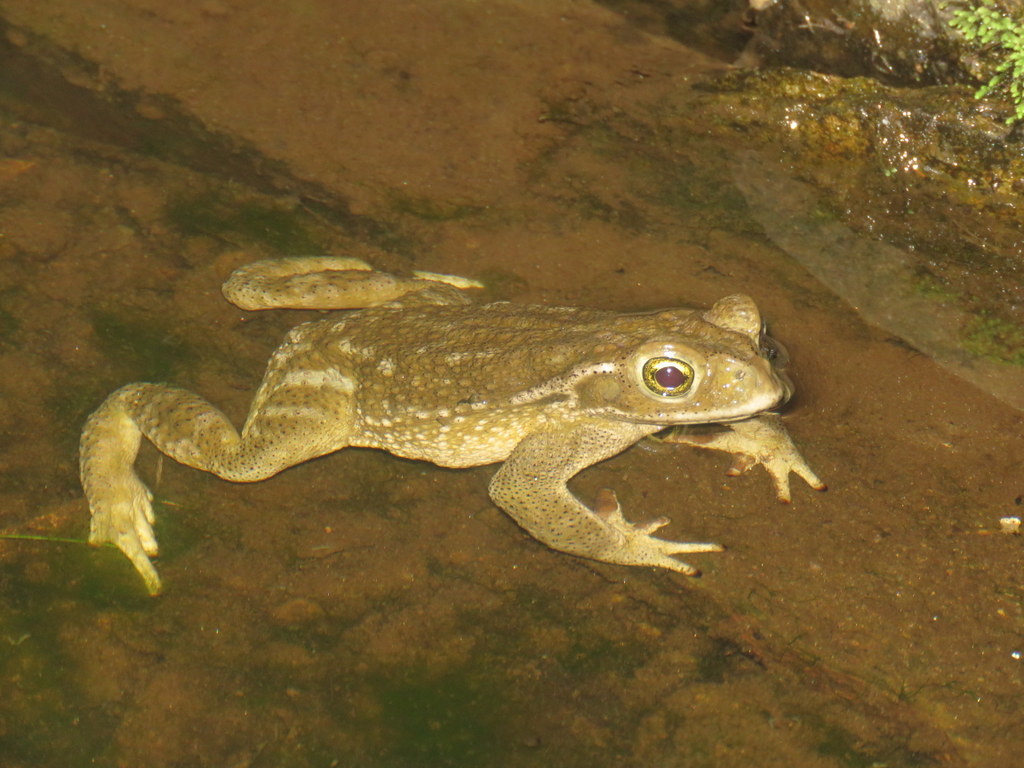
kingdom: Animalia
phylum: Chordata
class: Amphibia
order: Anura
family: Bufonidae
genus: Rhinella
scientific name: Rhinella arenarum
